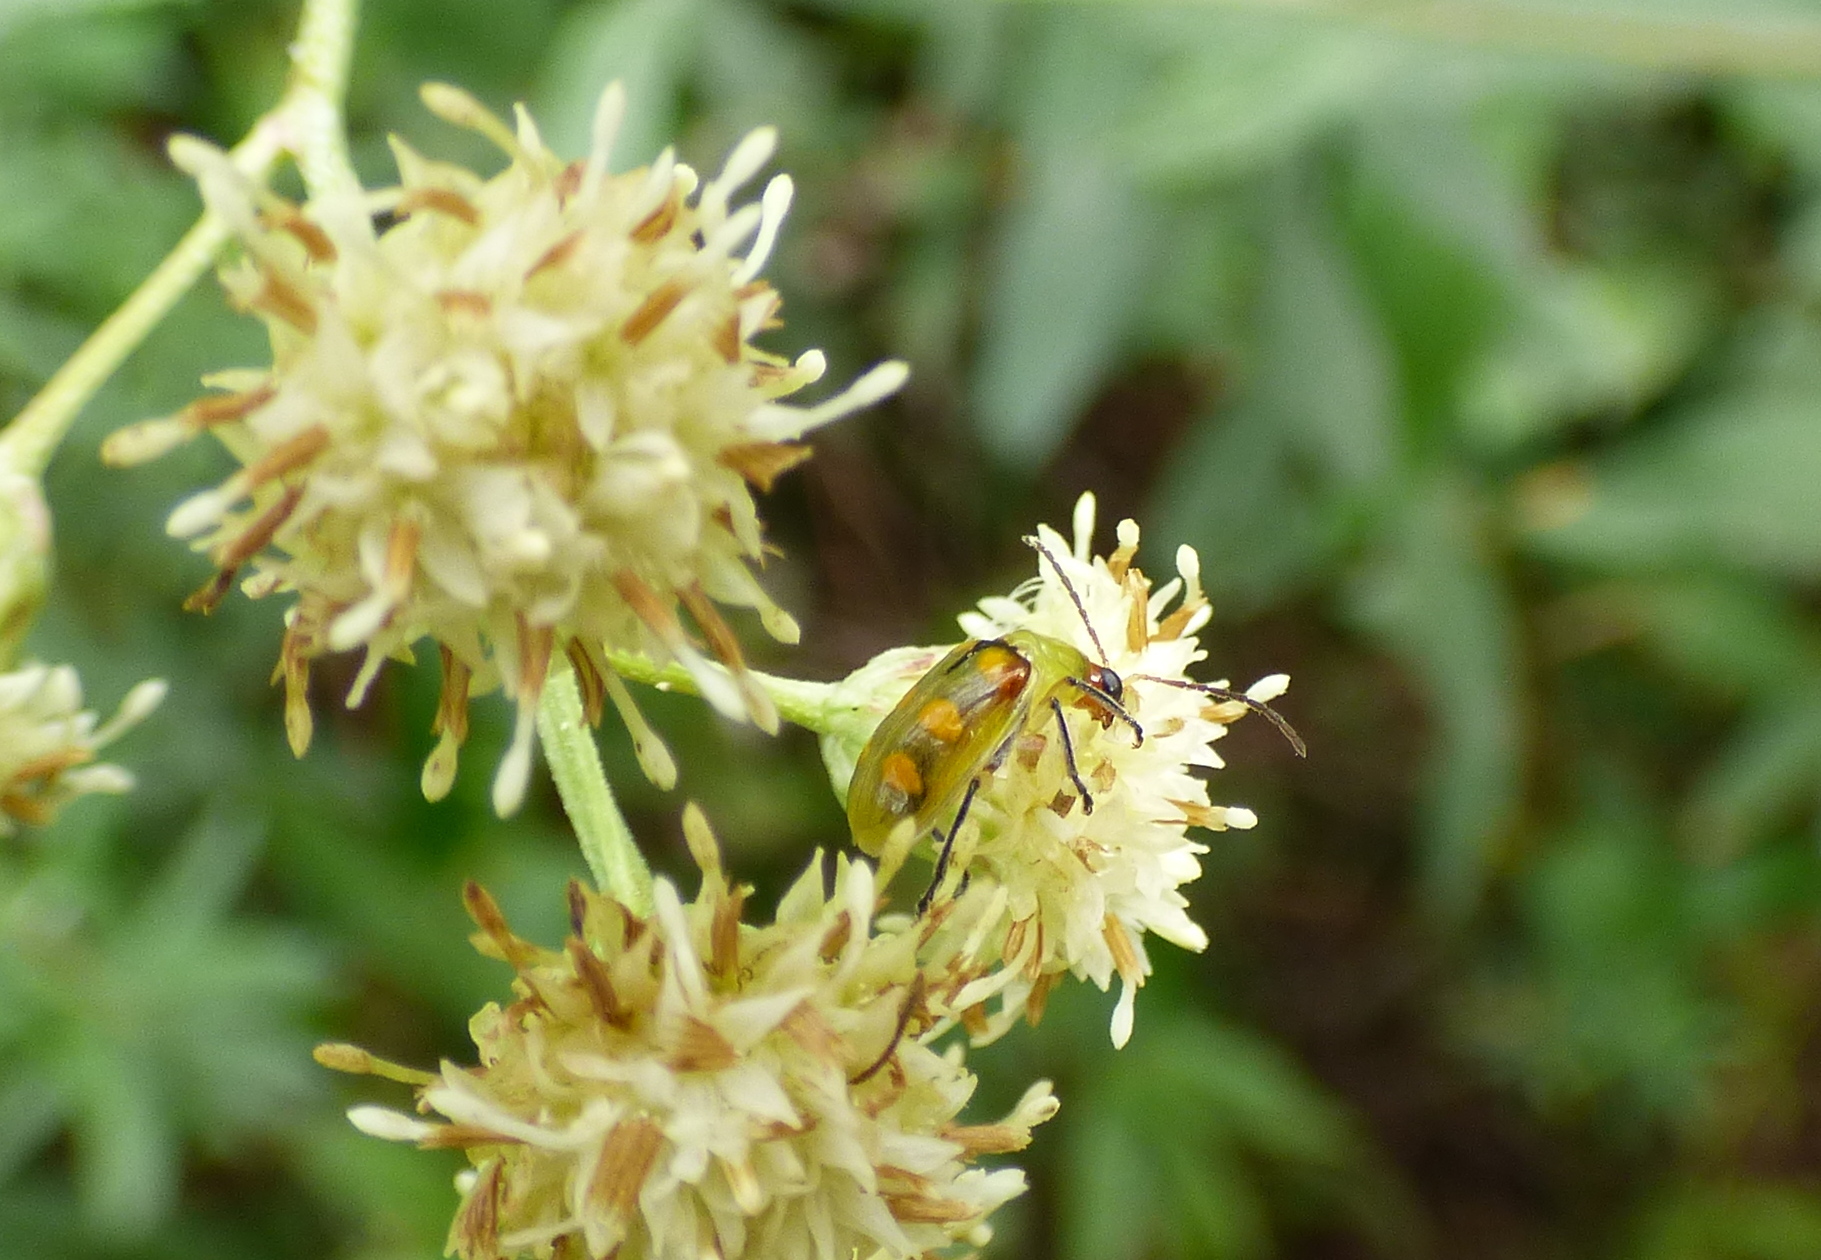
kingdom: Animalia
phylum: Arthropoda
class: Insecta
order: Coleoptera
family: Chrysomelidae
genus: Diabrotica
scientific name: Diabrotica speciosa
